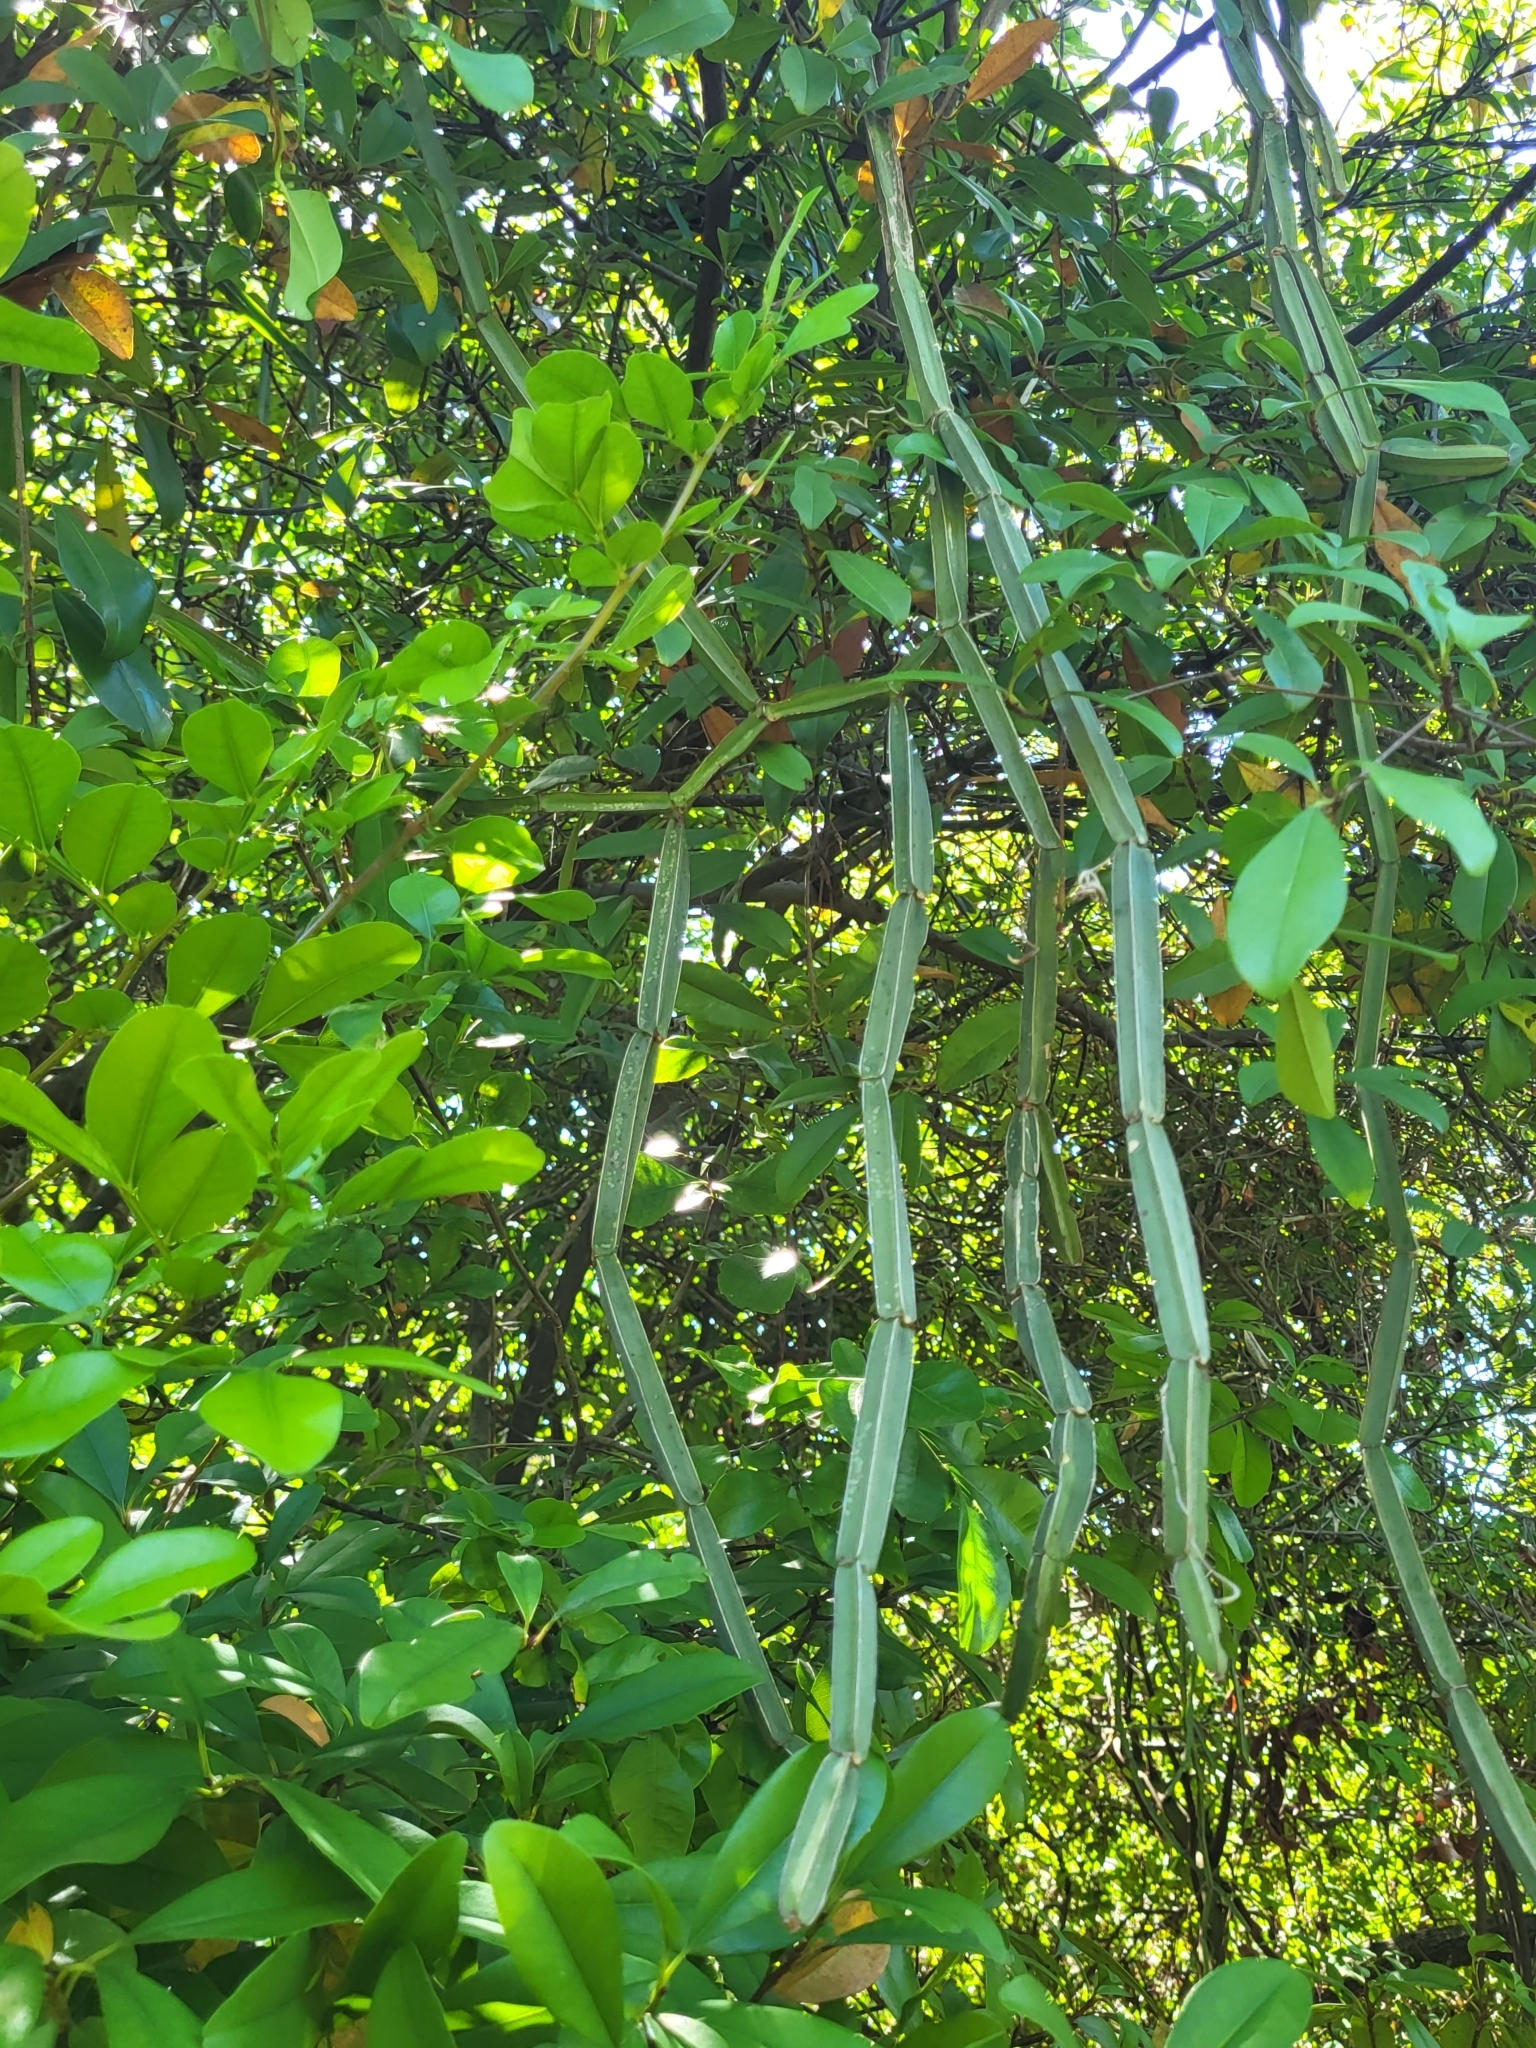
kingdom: Plantae
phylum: Tracheophyta
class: Magnoliopsida
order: Vitales
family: Vitaceae
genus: Cissus
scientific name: Cissus quadrangularis
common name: Veldt-grape
